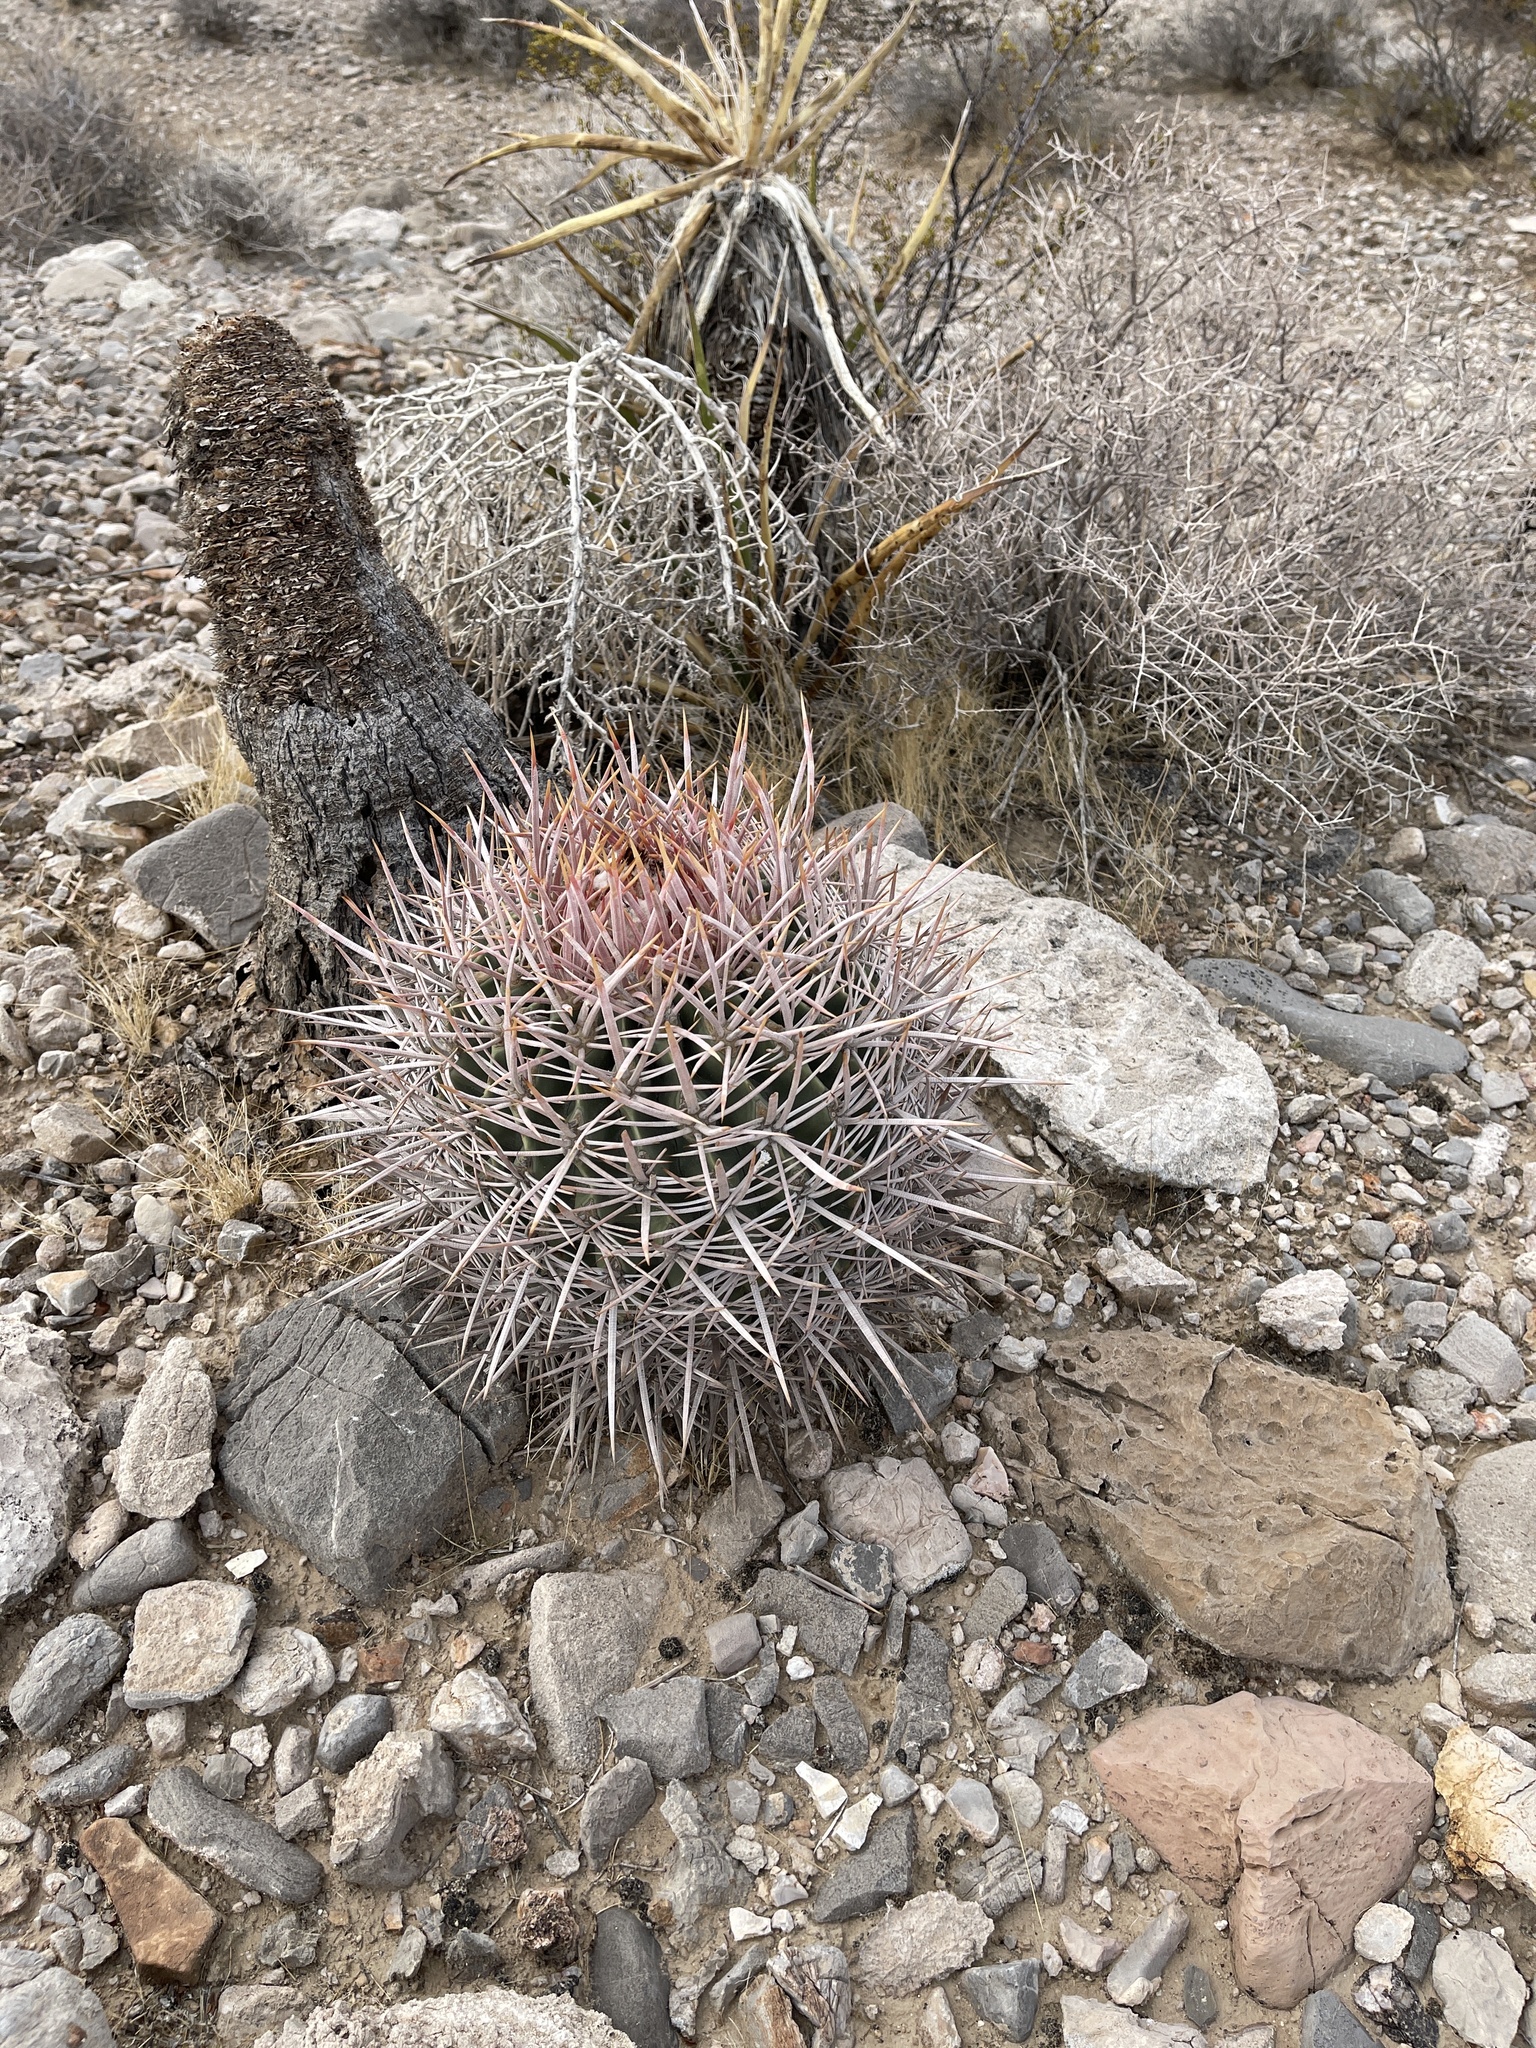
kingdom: Plantae
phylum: Tracheophyta
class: Magnoliopsida
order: Caryophyllales
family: Cactaceae
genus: Echinocactus
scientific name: Echinocactus polycephalus
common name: Cottontop cactus
